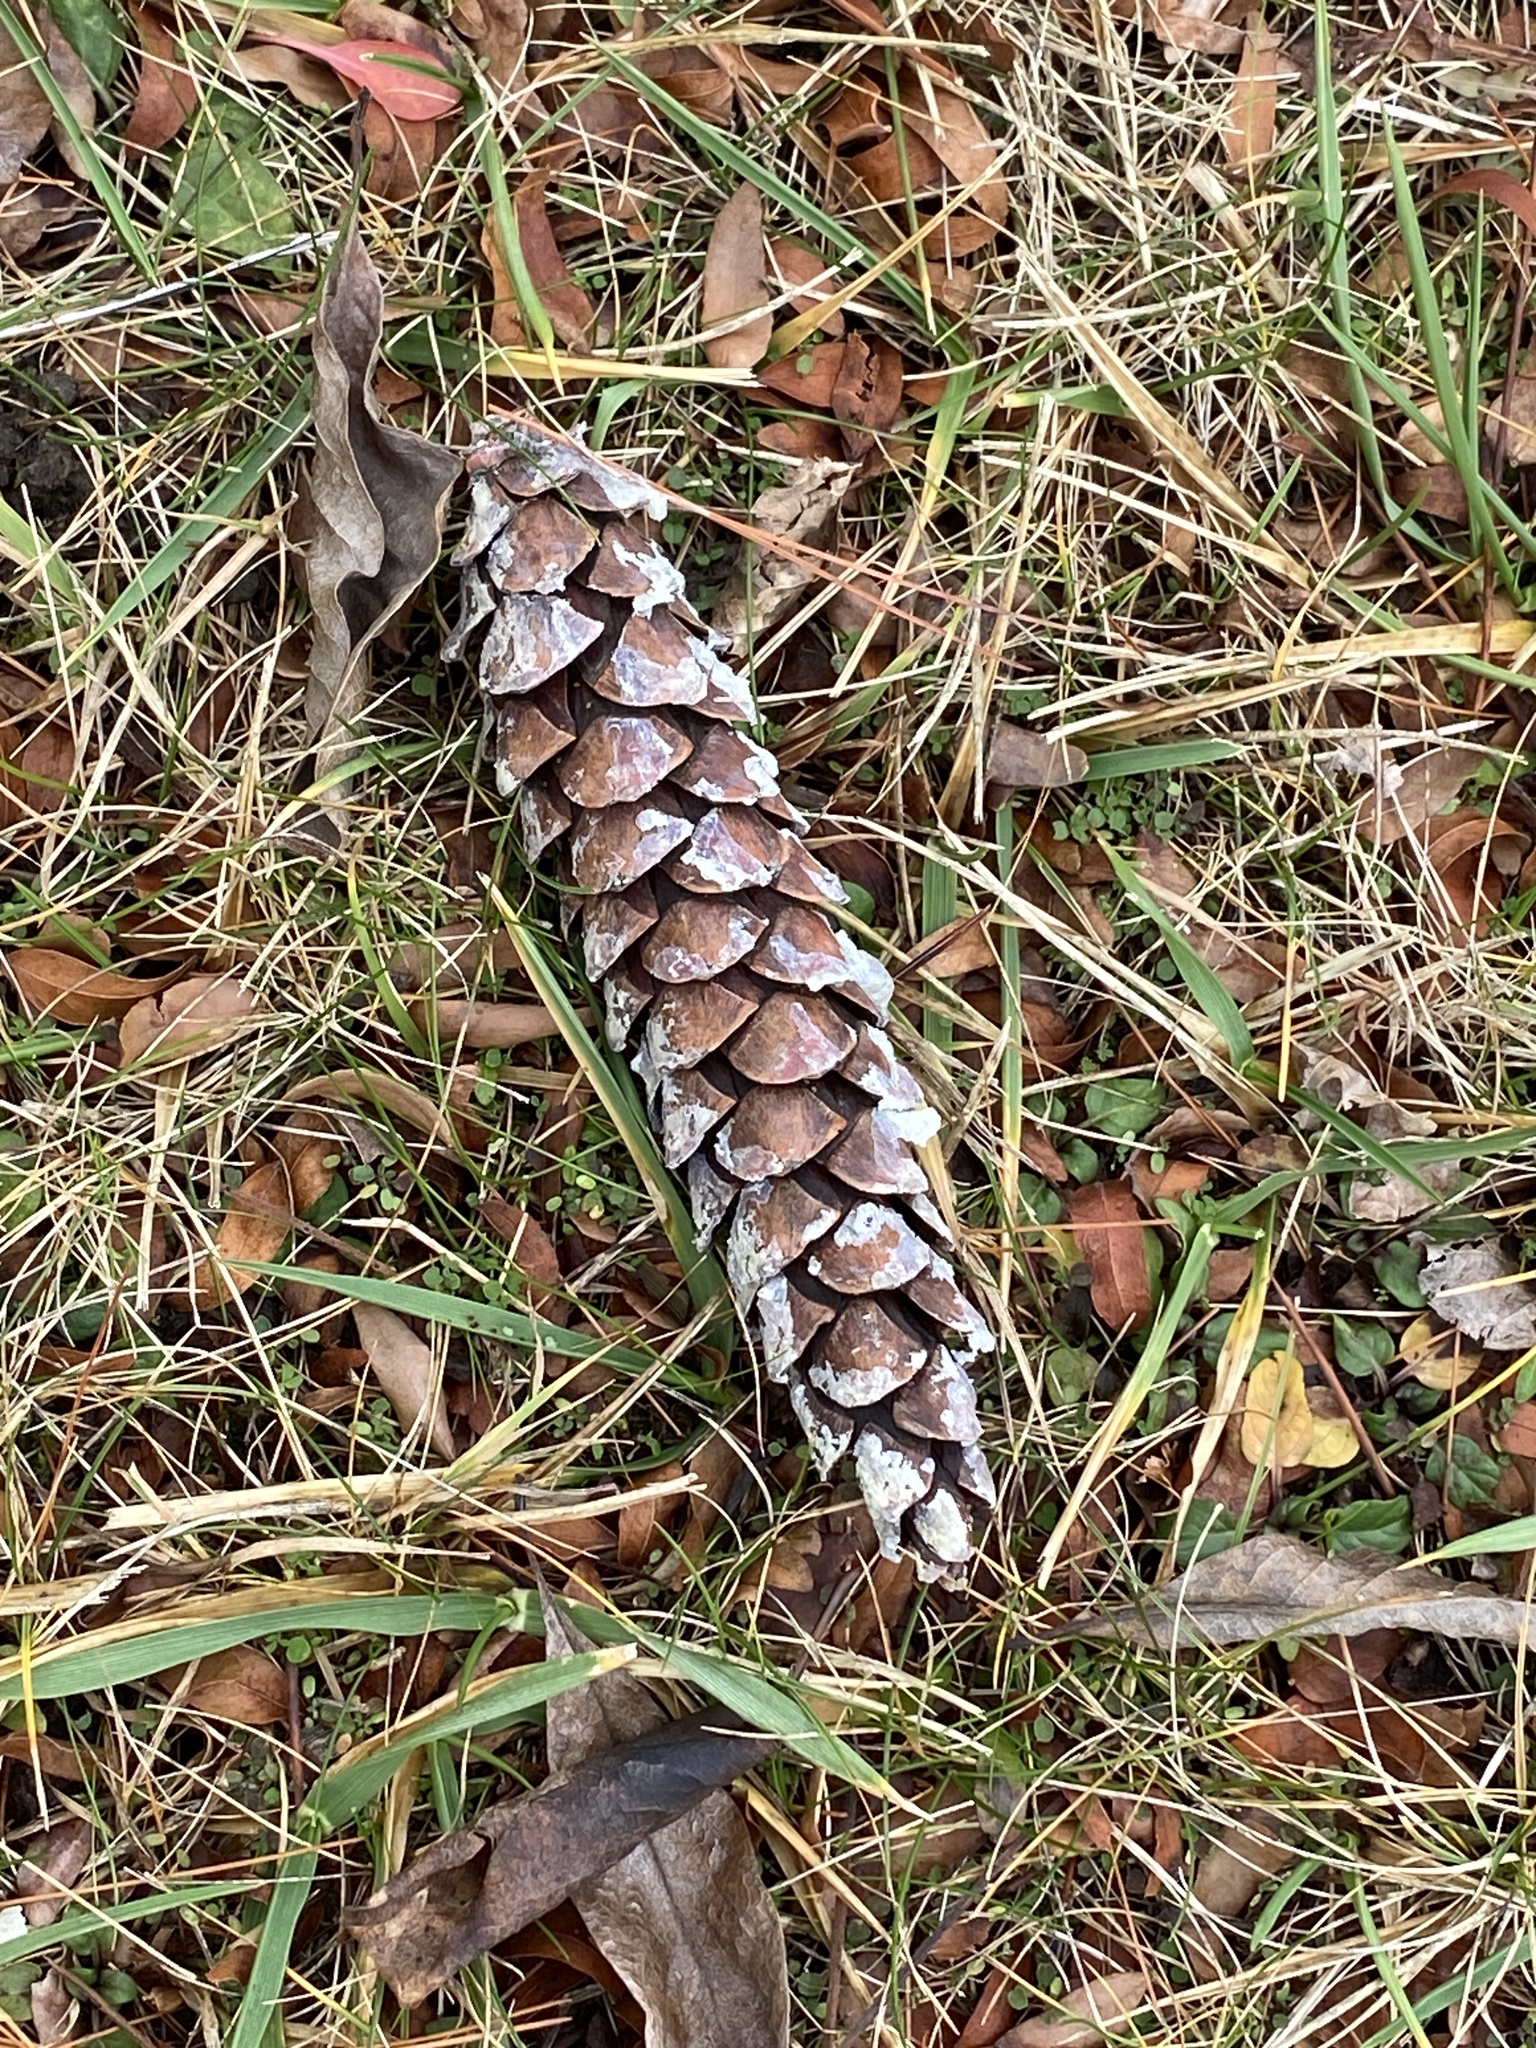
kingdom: Plantae
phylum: Tracheophyta
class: Pinopsida
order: Pinales
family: Pinaceae
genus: Pinus
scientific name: Pinus strobus
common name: Weymouth pine
